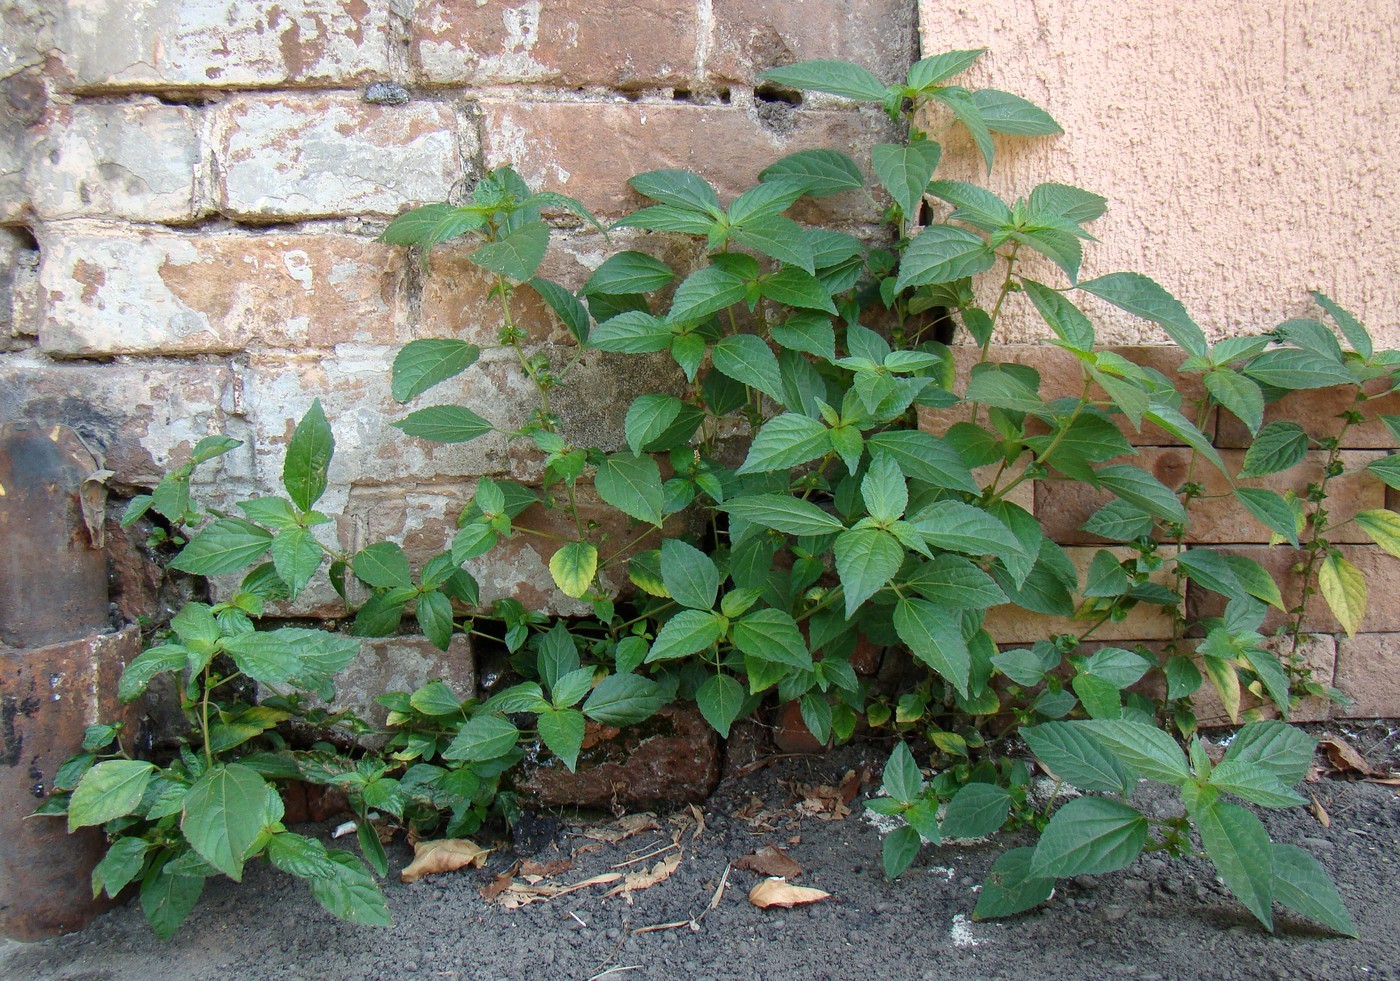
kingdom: Plantae
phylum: Tracheophyta
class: Magnoliopsida
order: Malpighiales
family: Euphorbiaceae
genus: Acalypha
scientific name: Acalypha australis
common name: Asian copperleaf
